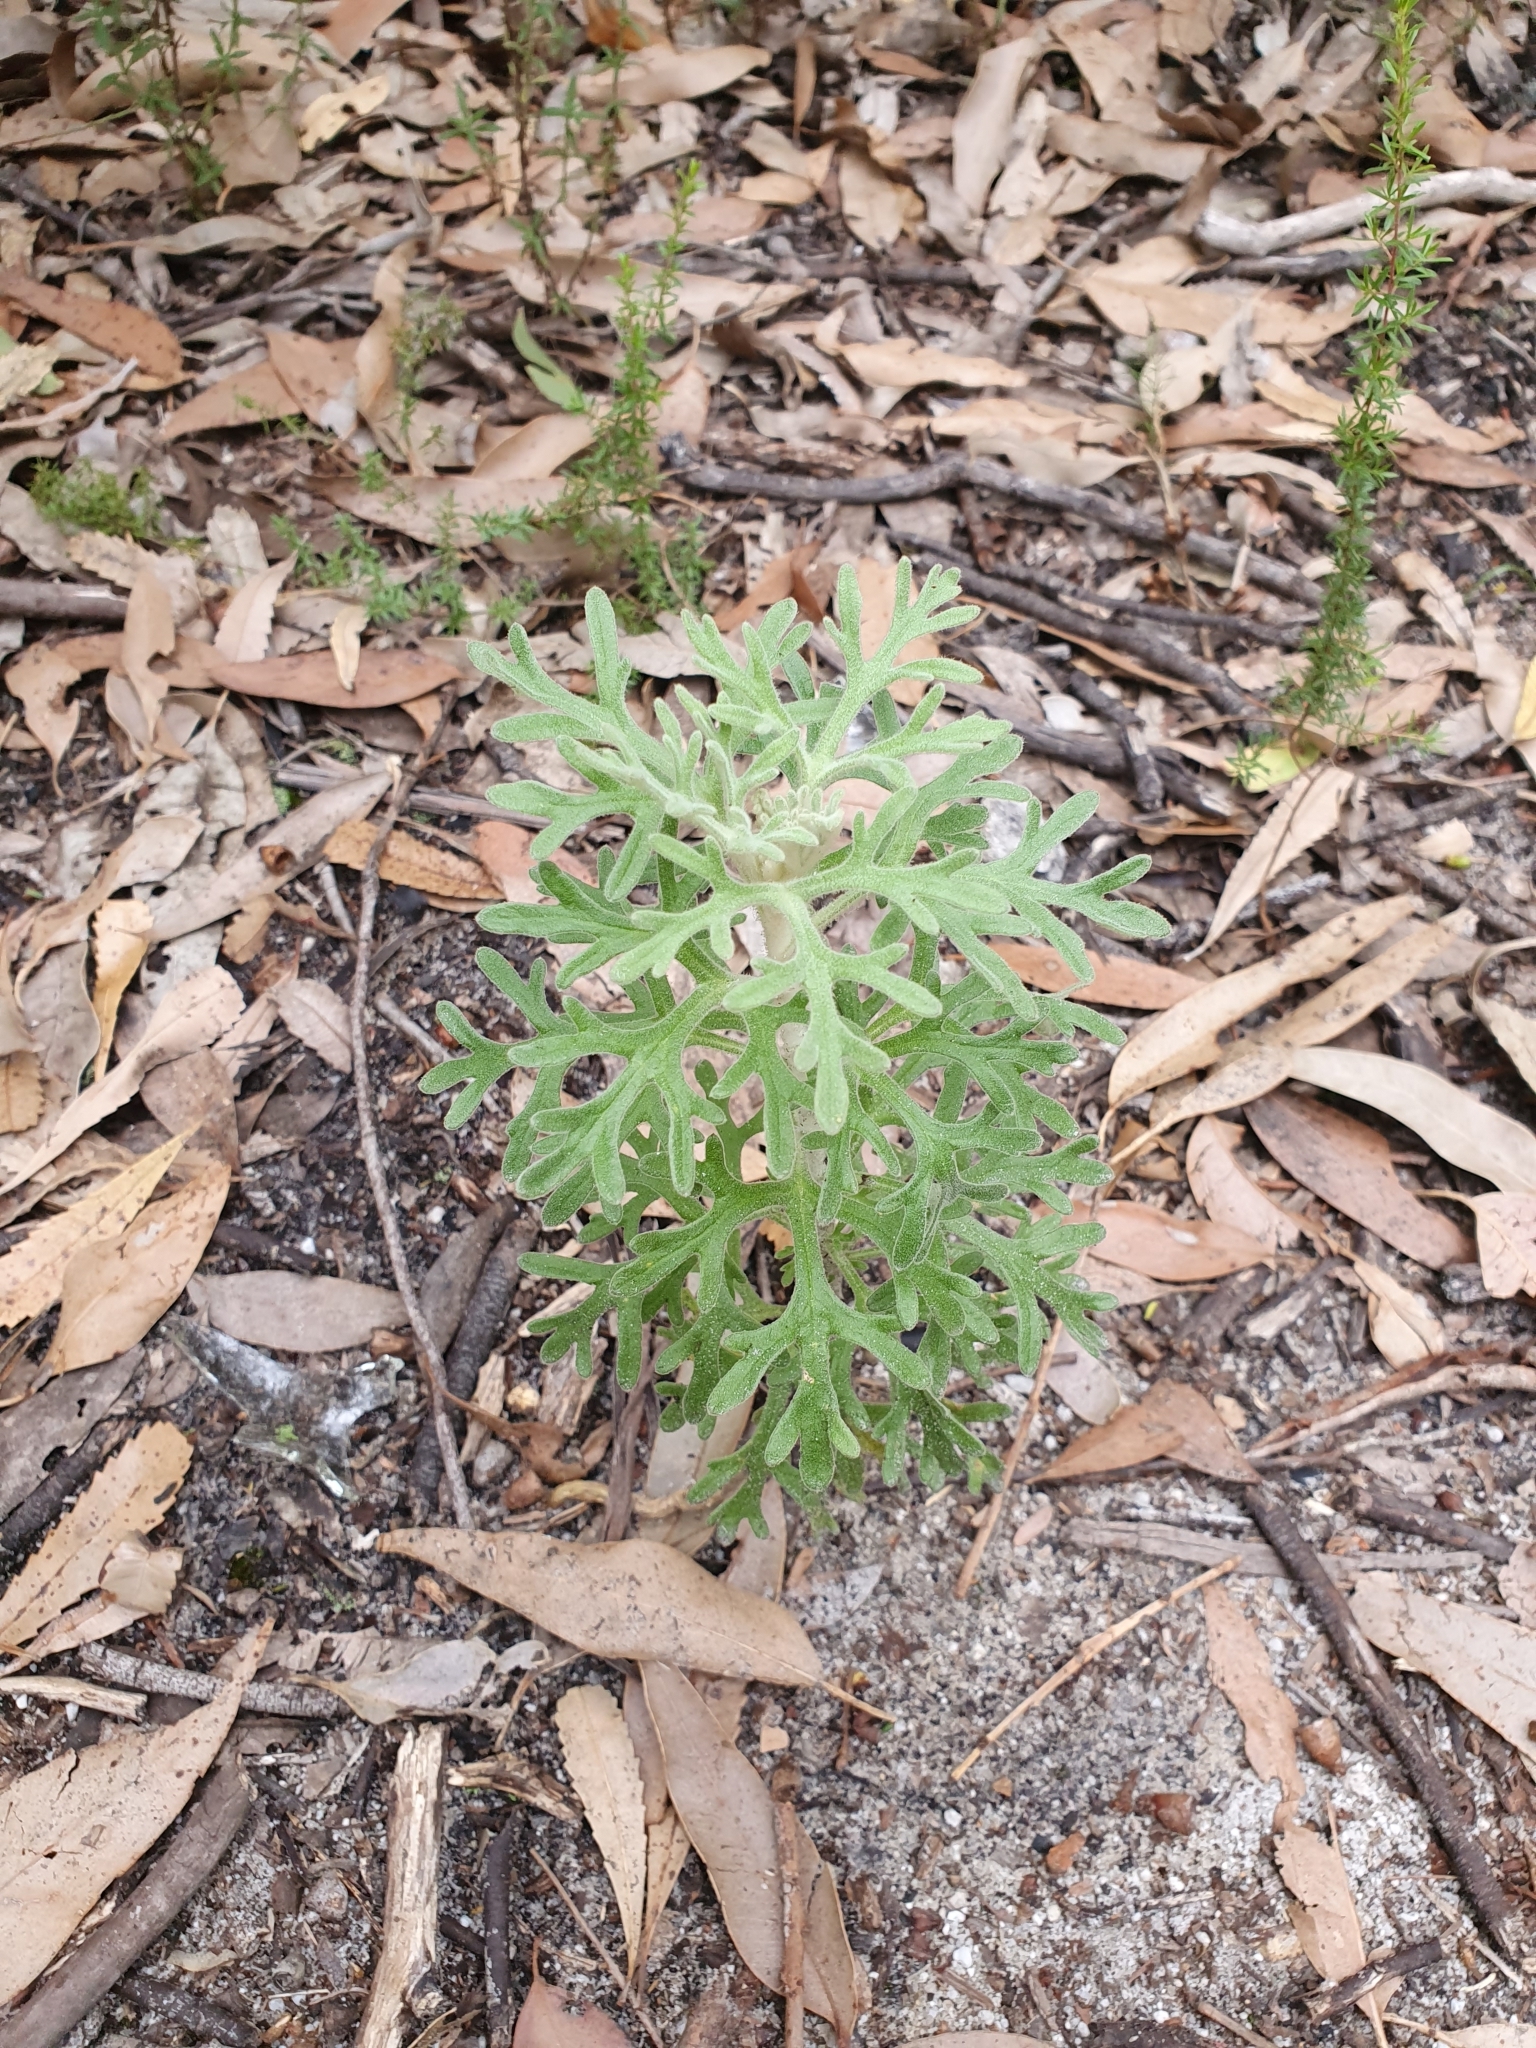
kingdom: Plantae
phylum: Tracheophyta
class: Magnoliopsida
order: Apiales
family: Apiaceae
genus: Actinotus
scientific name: Actinotus helianthi
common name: Flannel-flower
